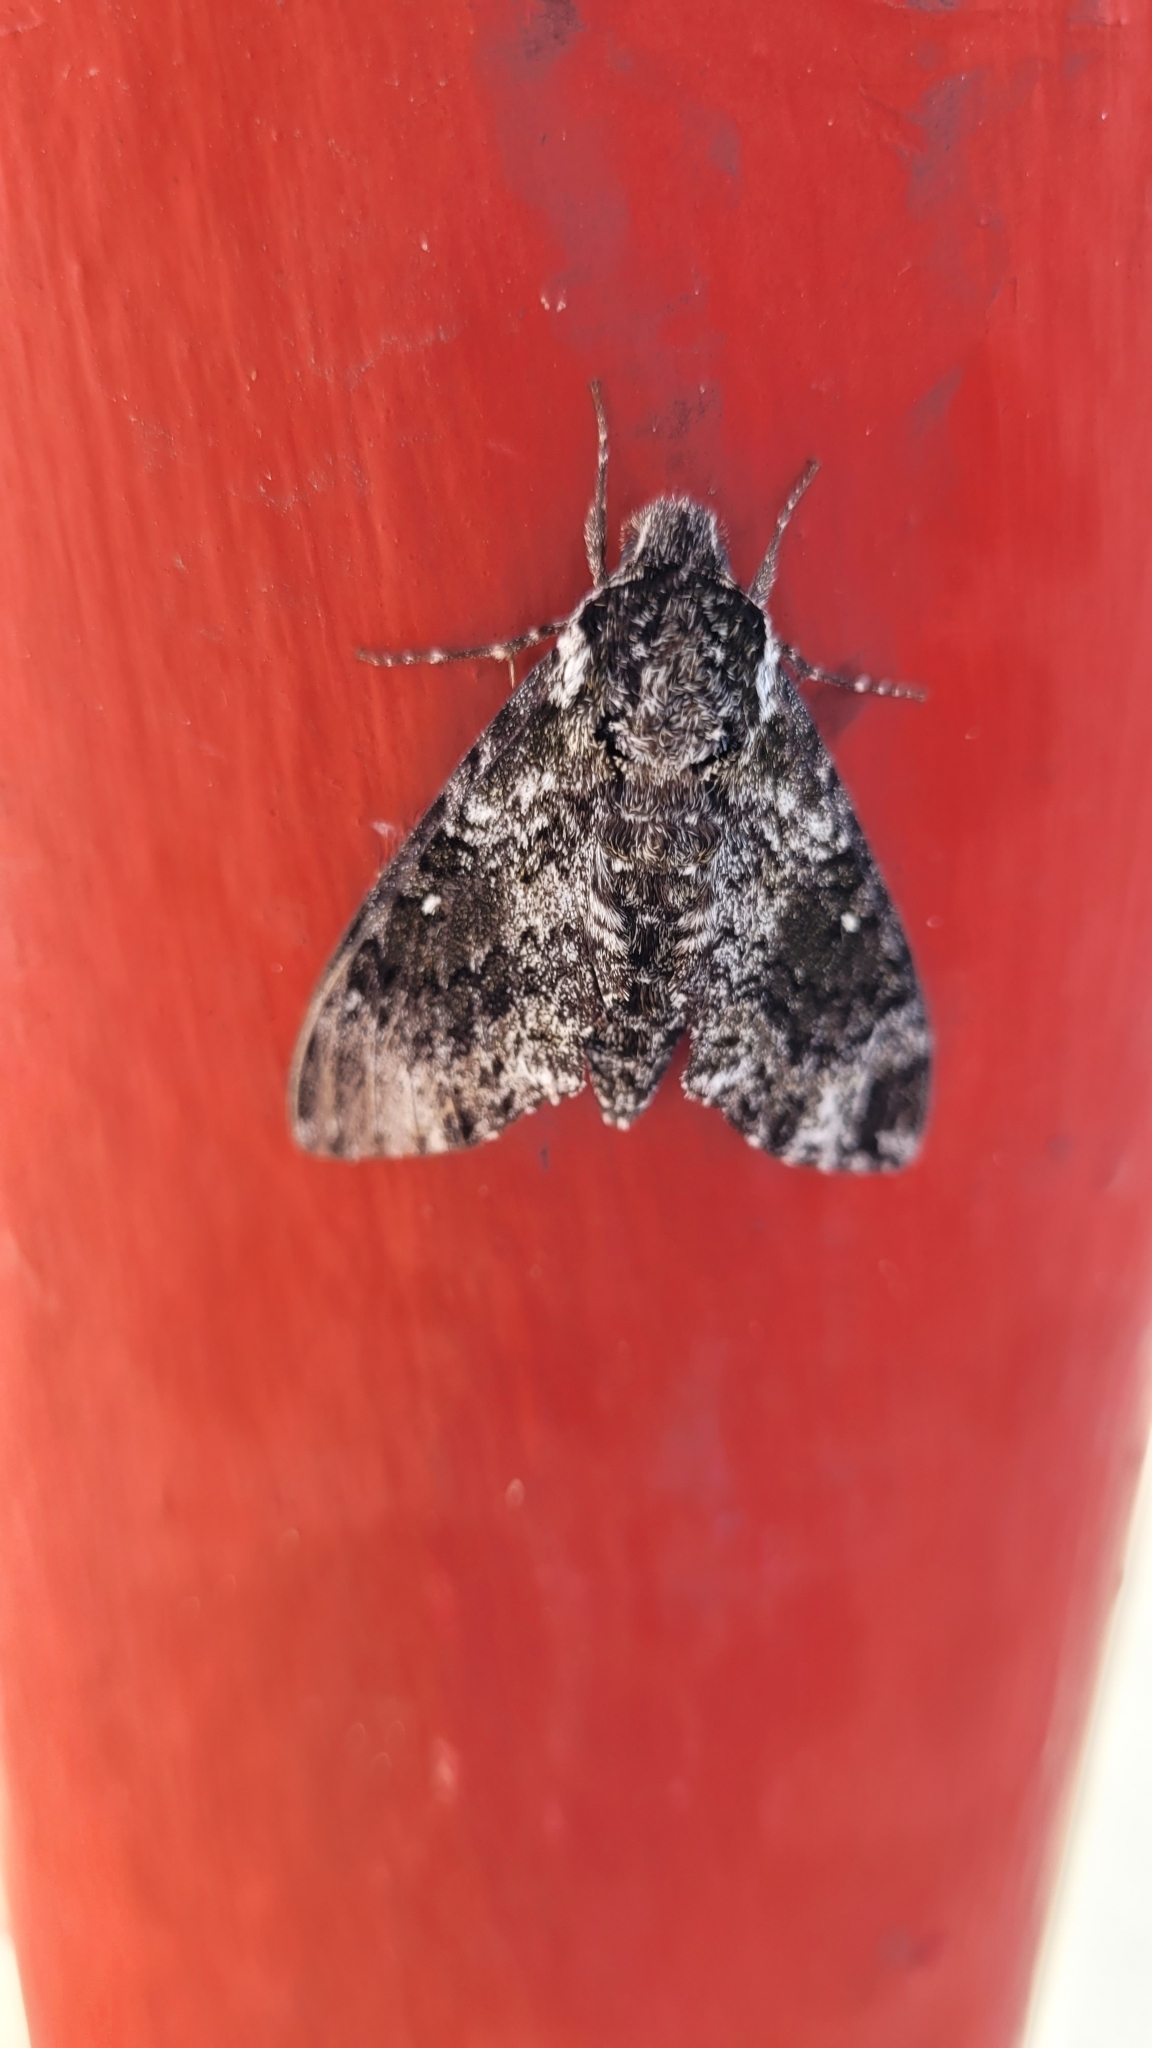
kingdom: Animalia
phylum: Arthropoda
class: Insecta
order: Lepidoptera
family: Sphingidae
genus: Dolba
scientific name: Dolba hyloeus
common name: Pawpaw sphinx
